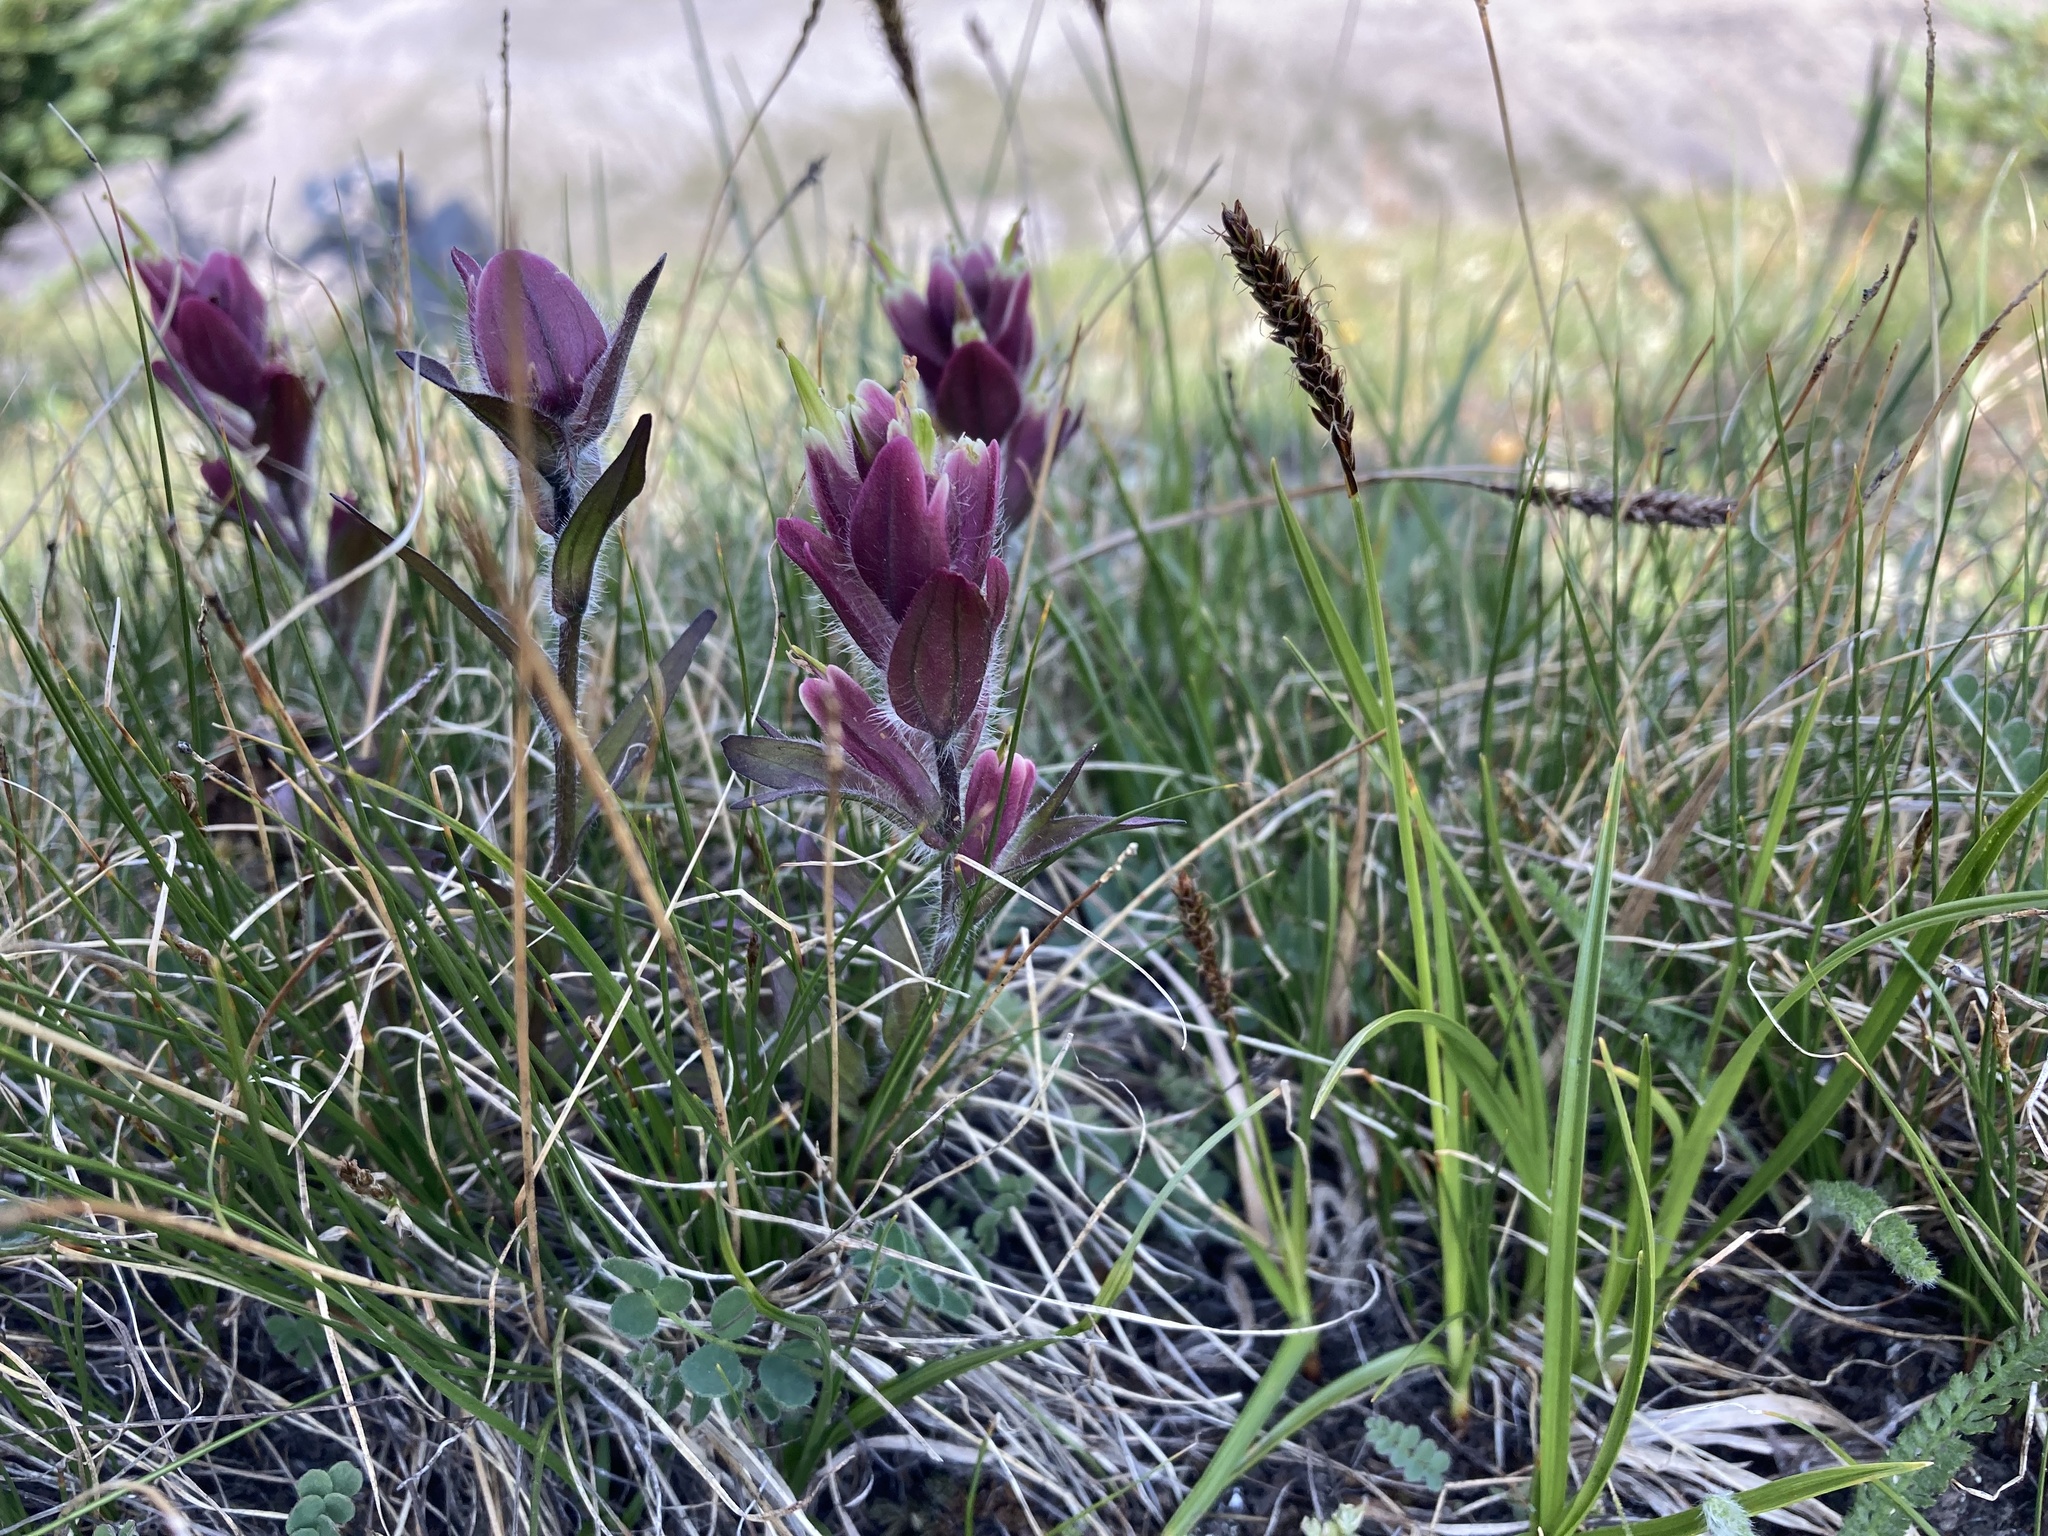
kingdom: Plantae
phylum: Tracheophyta
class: Magnoliopsida
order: Lamiales
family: Orobanchaceae
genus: Castilleja
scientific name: Castilleja rhexifolia
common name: Rocky mountain paintbrush
